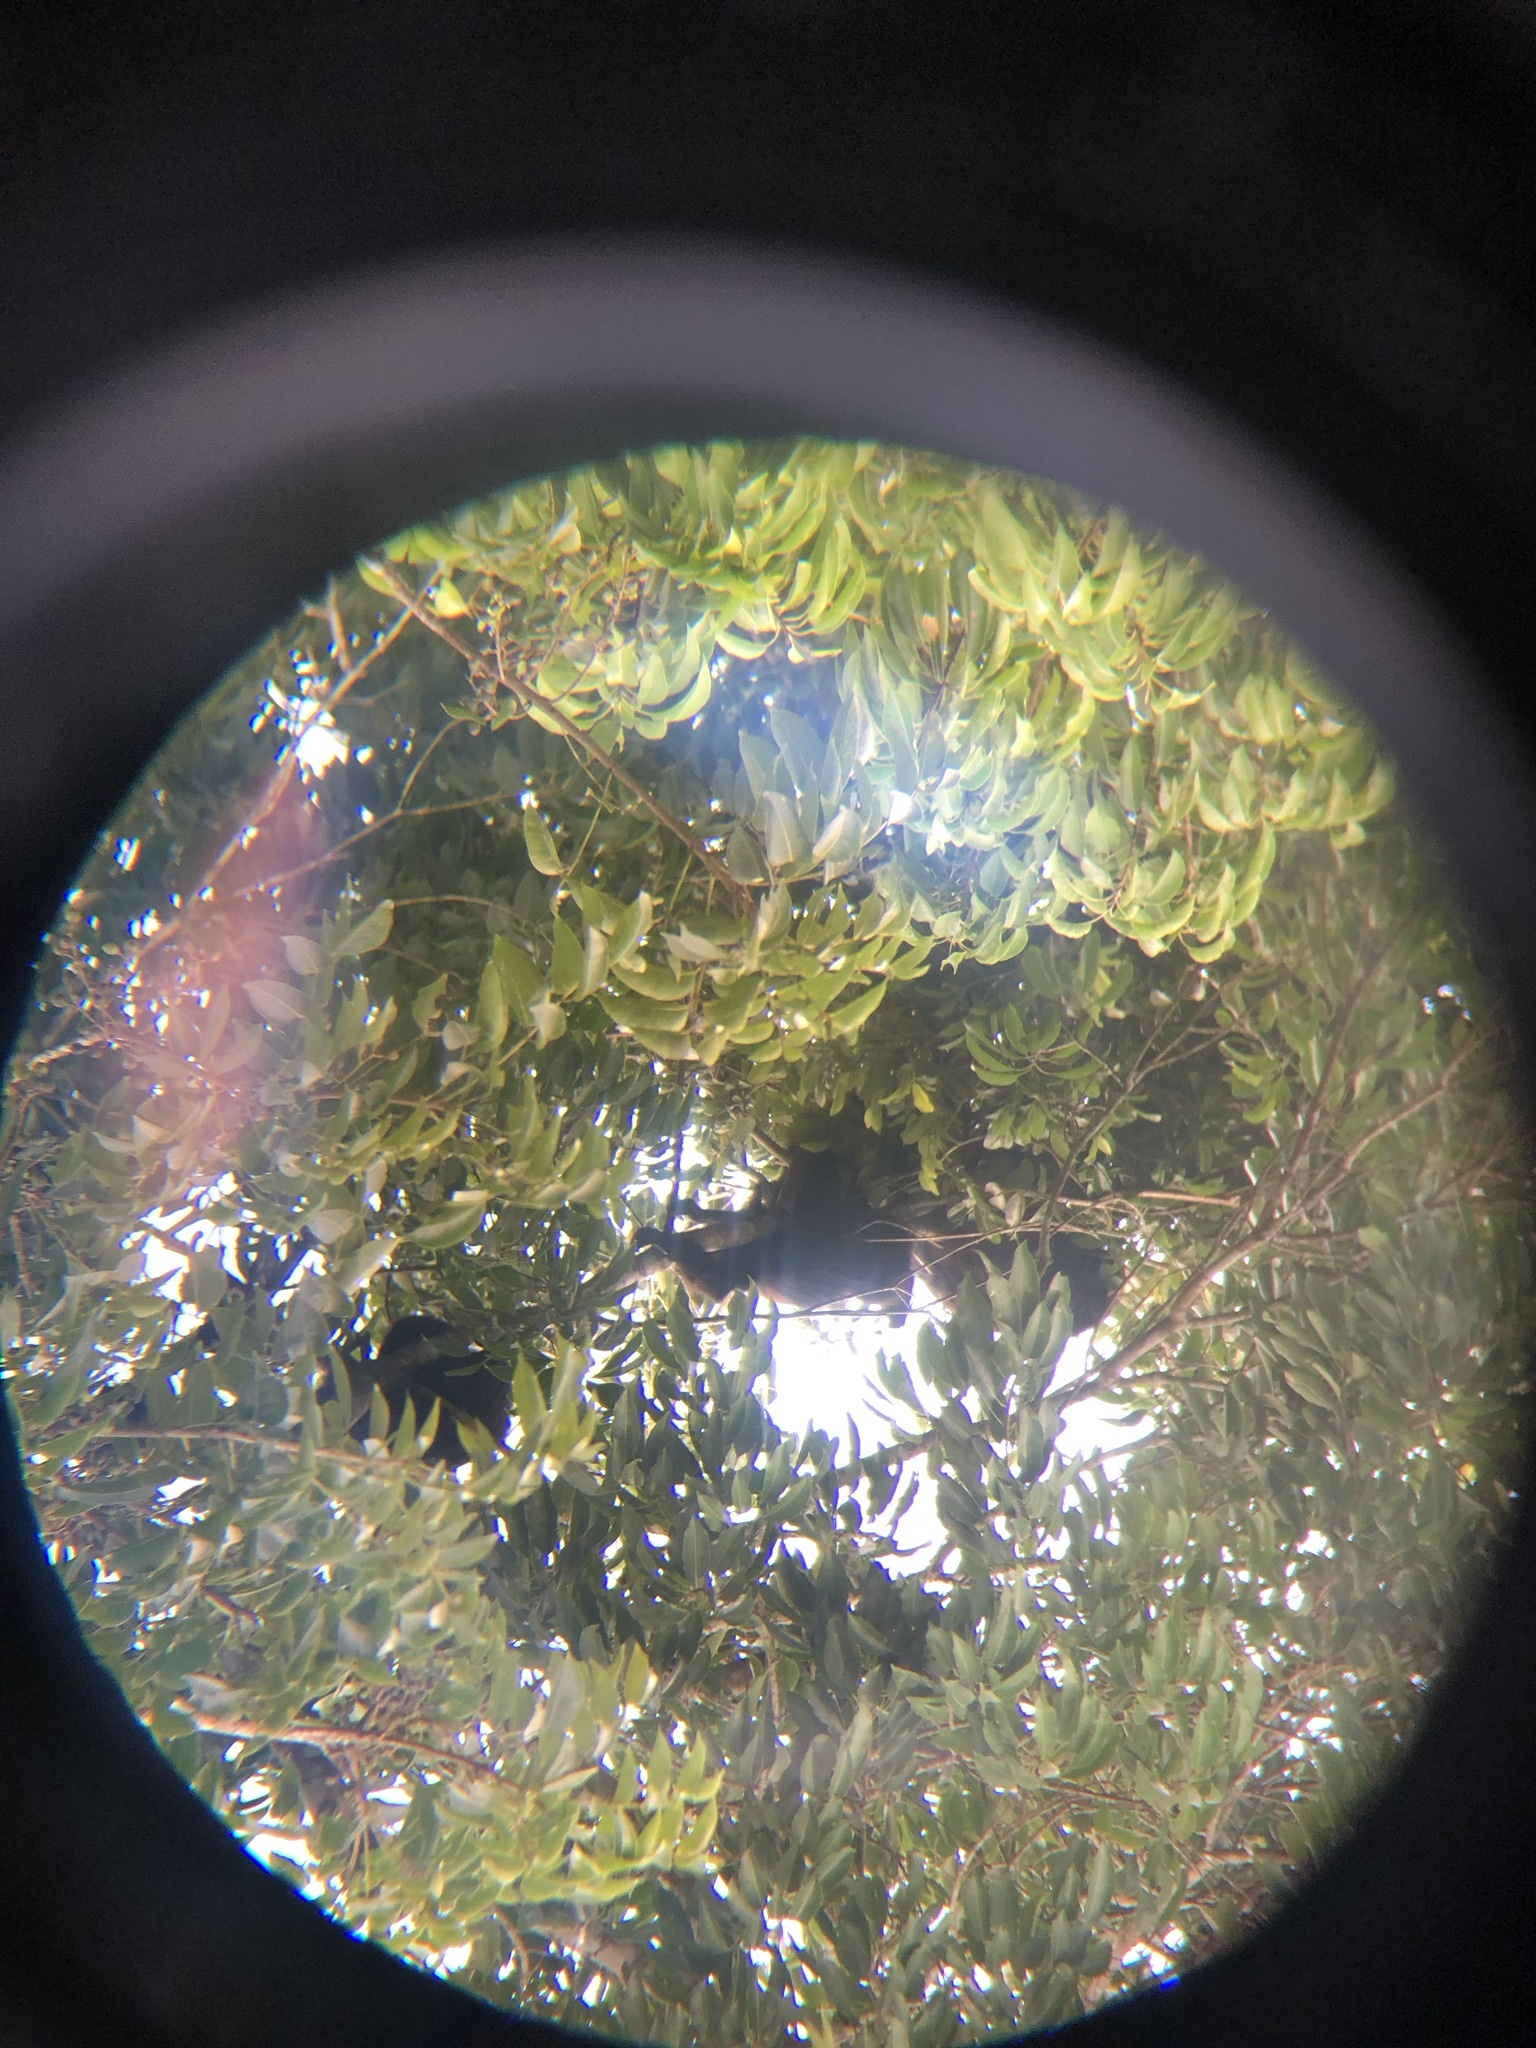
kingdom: Animalia
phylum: Chordata
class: Mammalia
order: Primates
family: Atelidae
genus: Alouatta
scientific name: Alouatta pigra
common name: Guatemalan black howler
